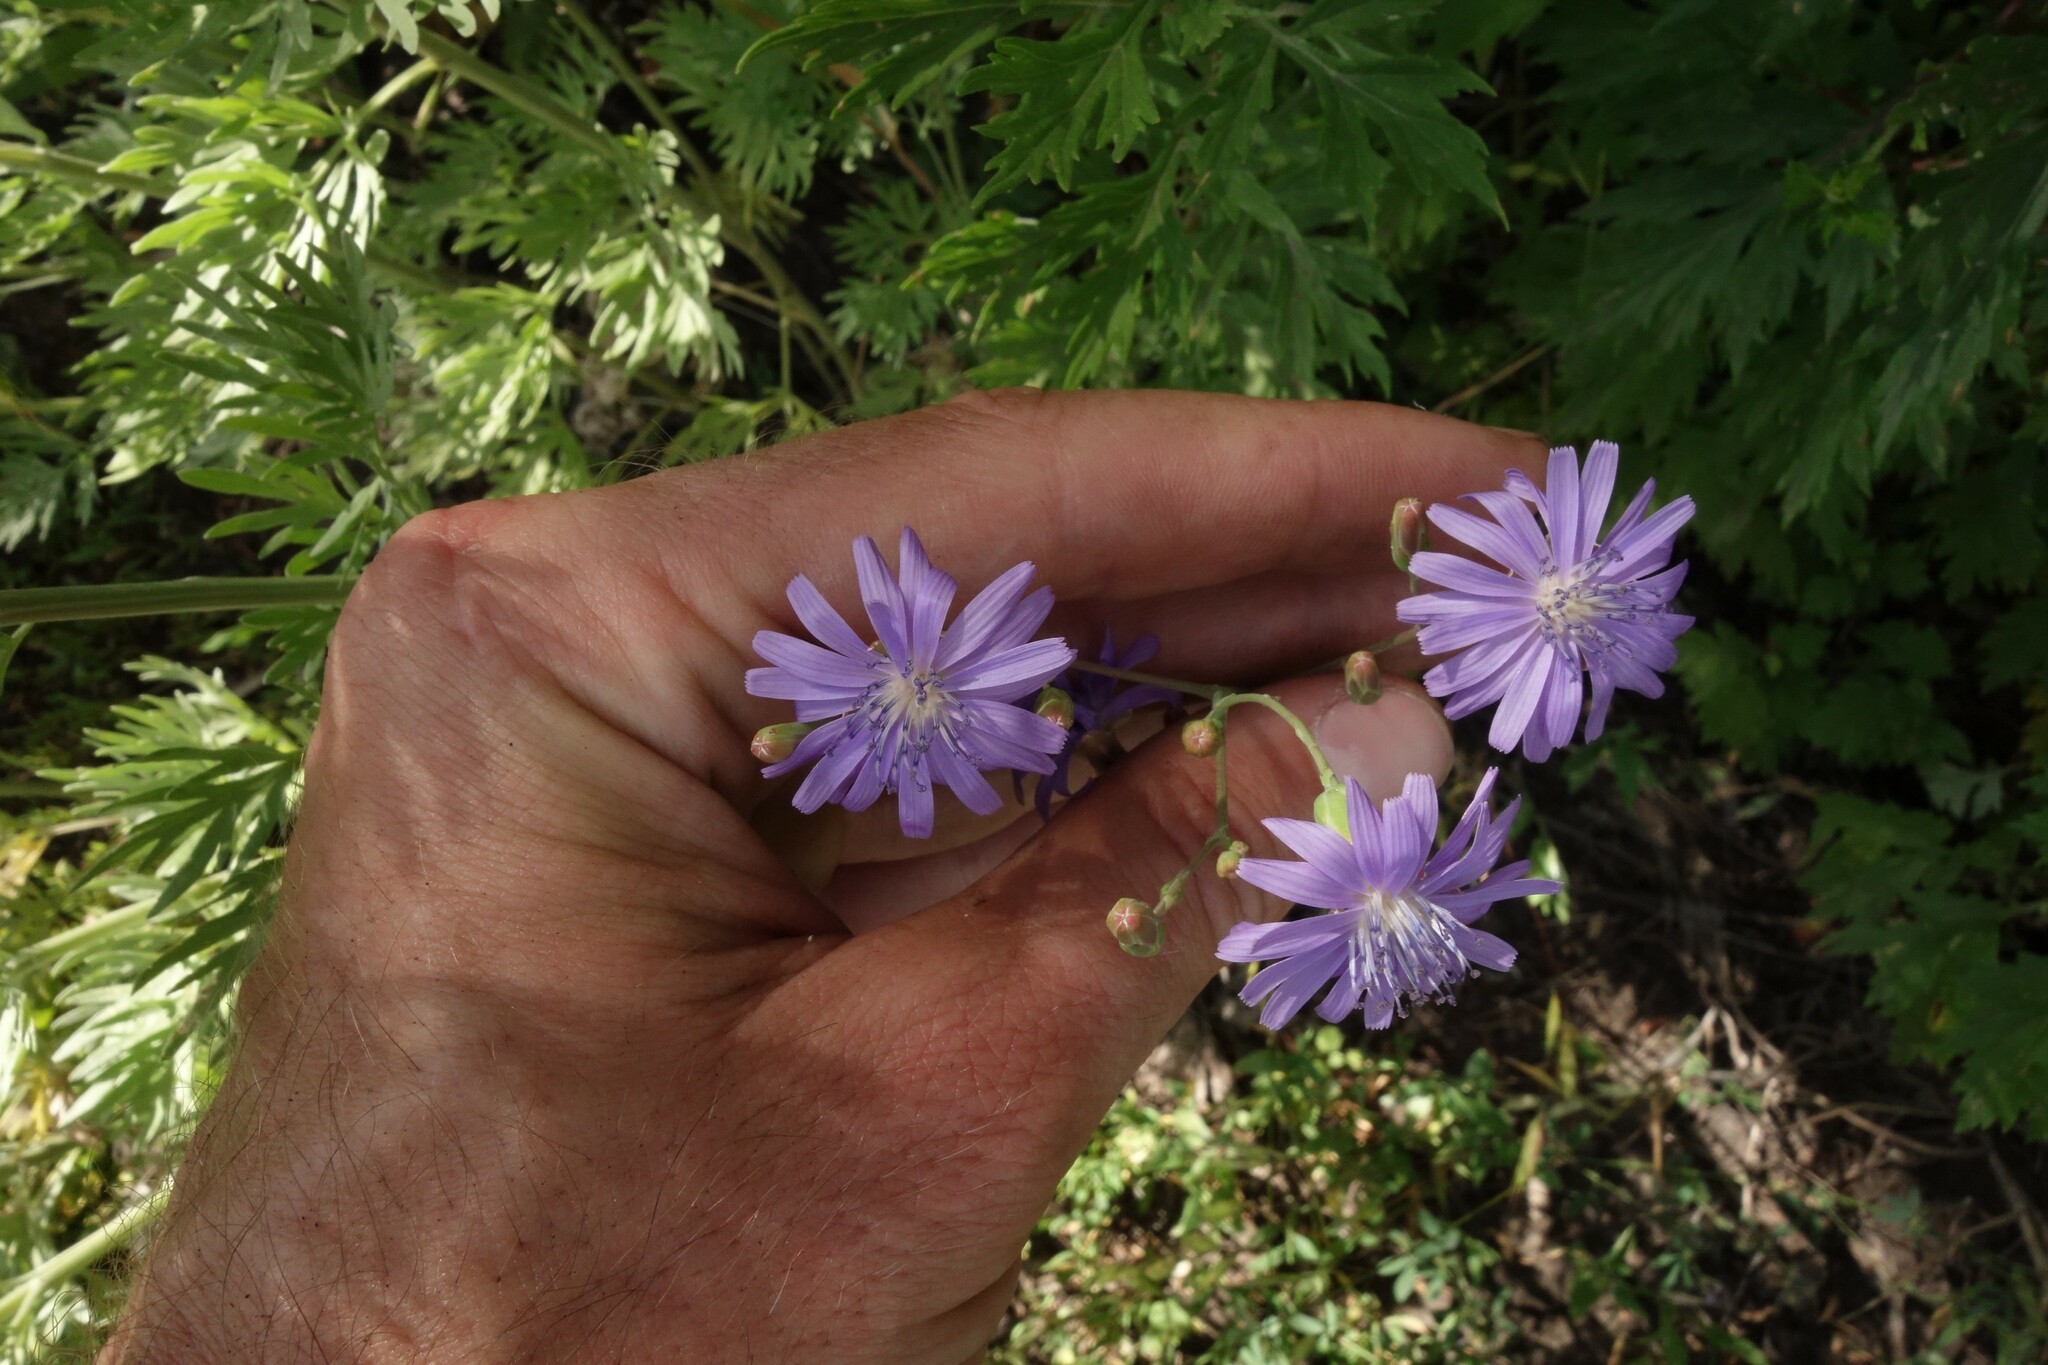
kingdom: Plantae
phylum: Tracheophyta
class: Magnoliopsida
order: Asterales
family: Asteraceae
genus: Lactuca
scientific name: Lactuca tatarica
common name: Blue lettuce
